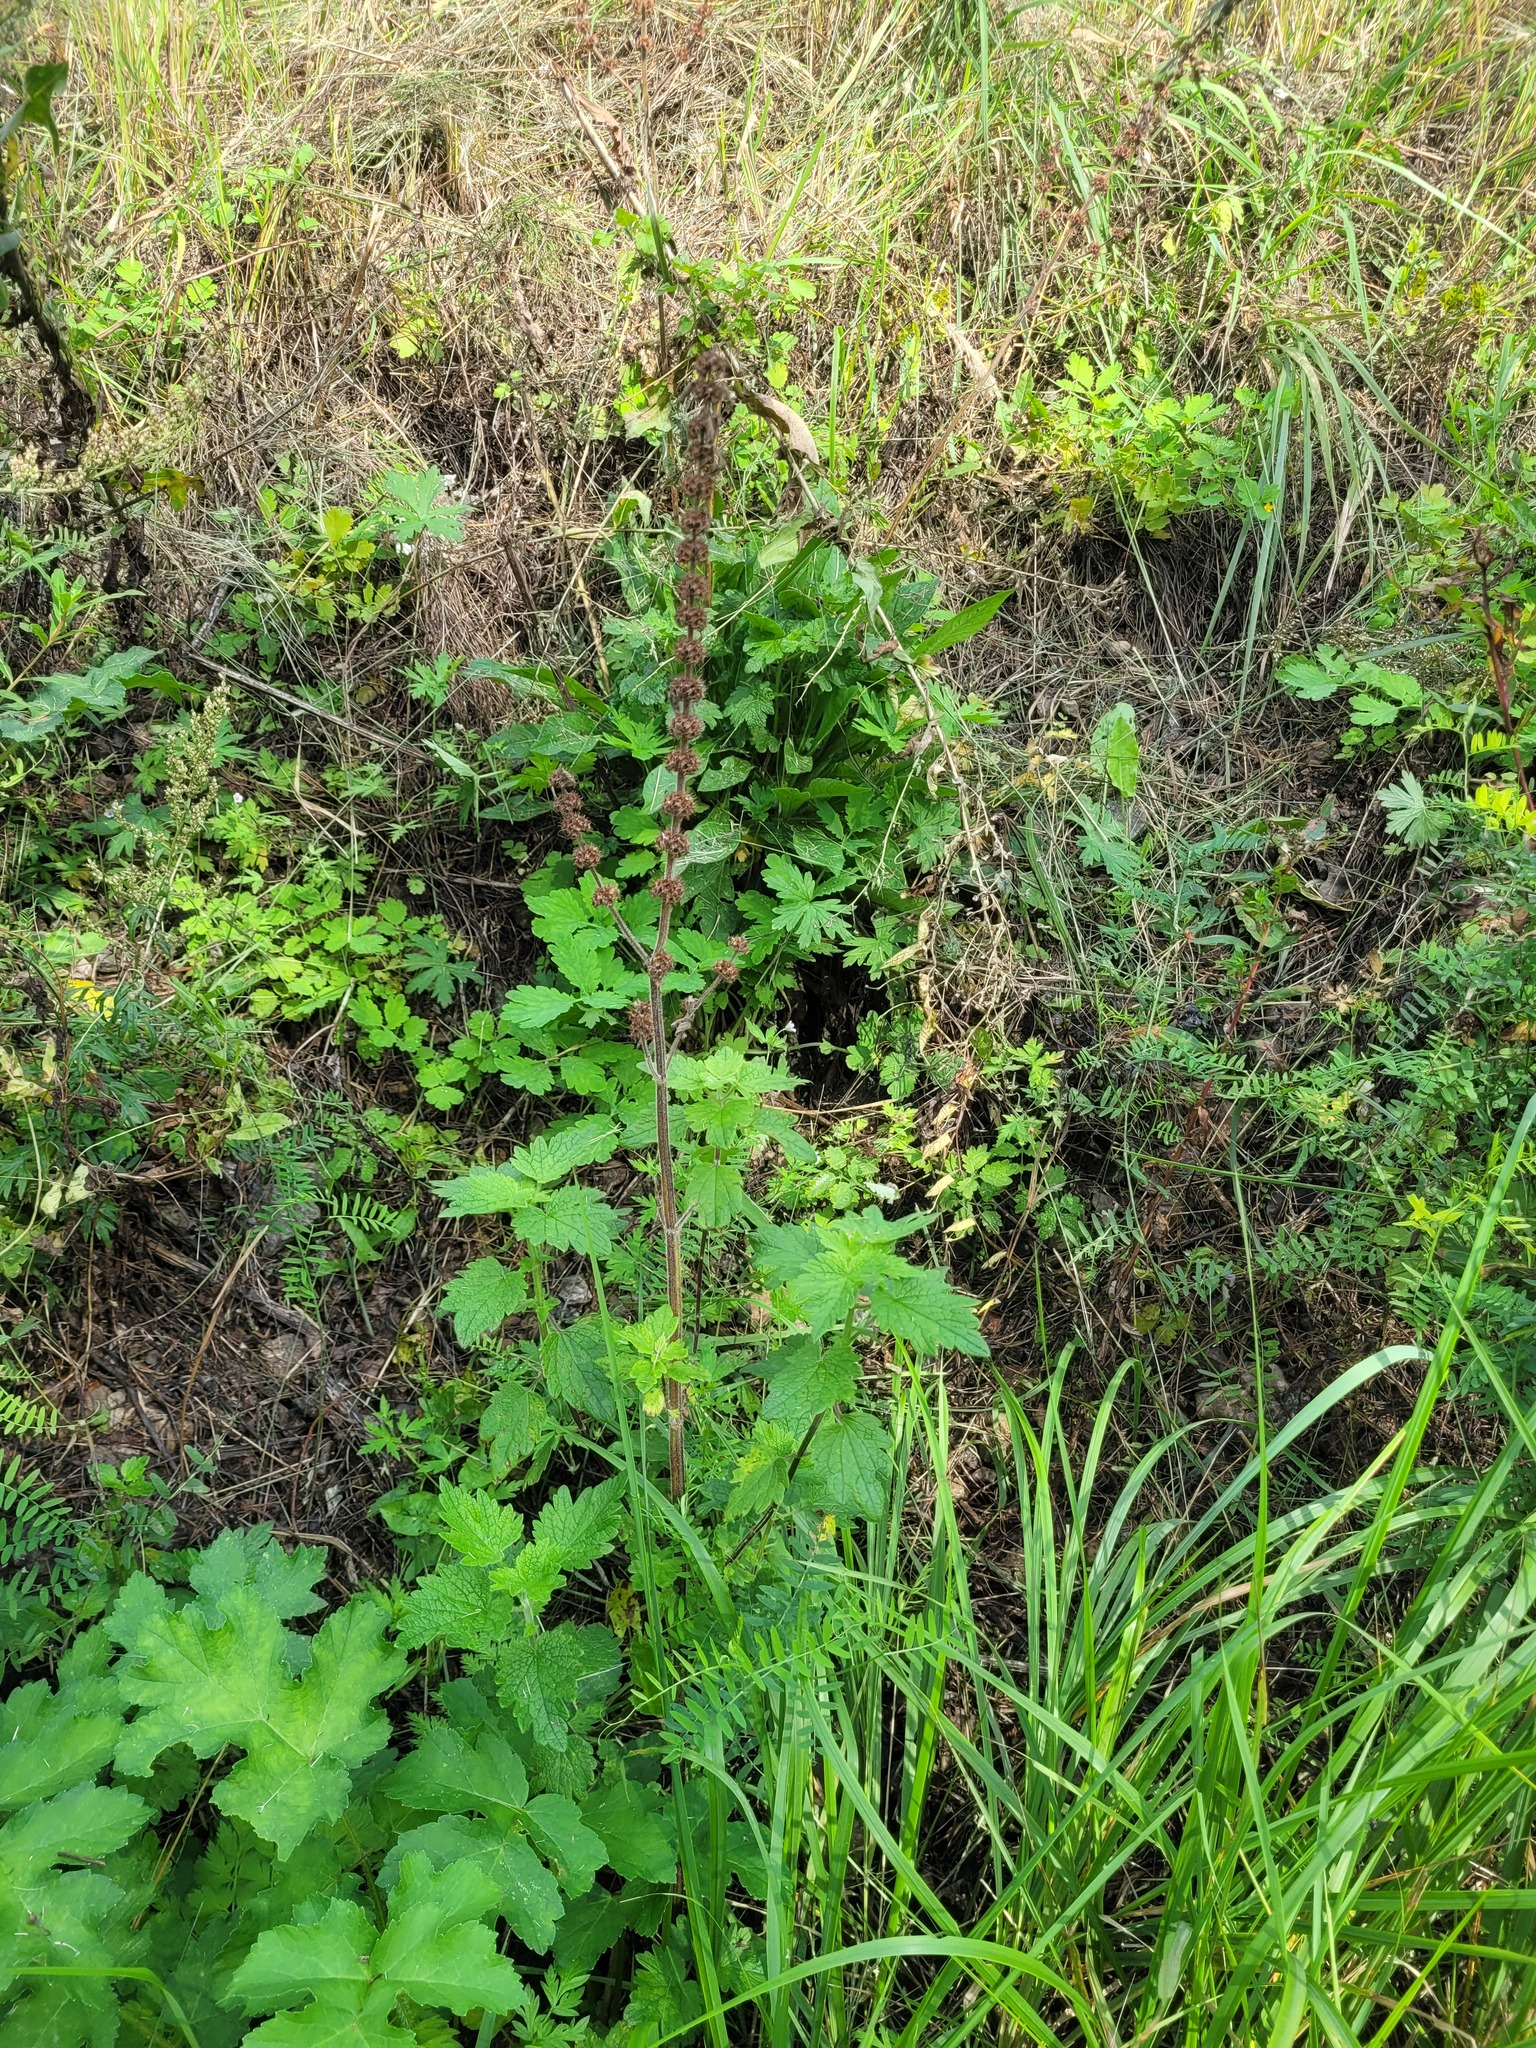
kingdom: Plantae
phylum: Tracheophyta
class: Magnoliopsida
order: Lamiales
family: Lamiaceae
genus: Leonurus
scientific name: Leonurus quinquelobatus
